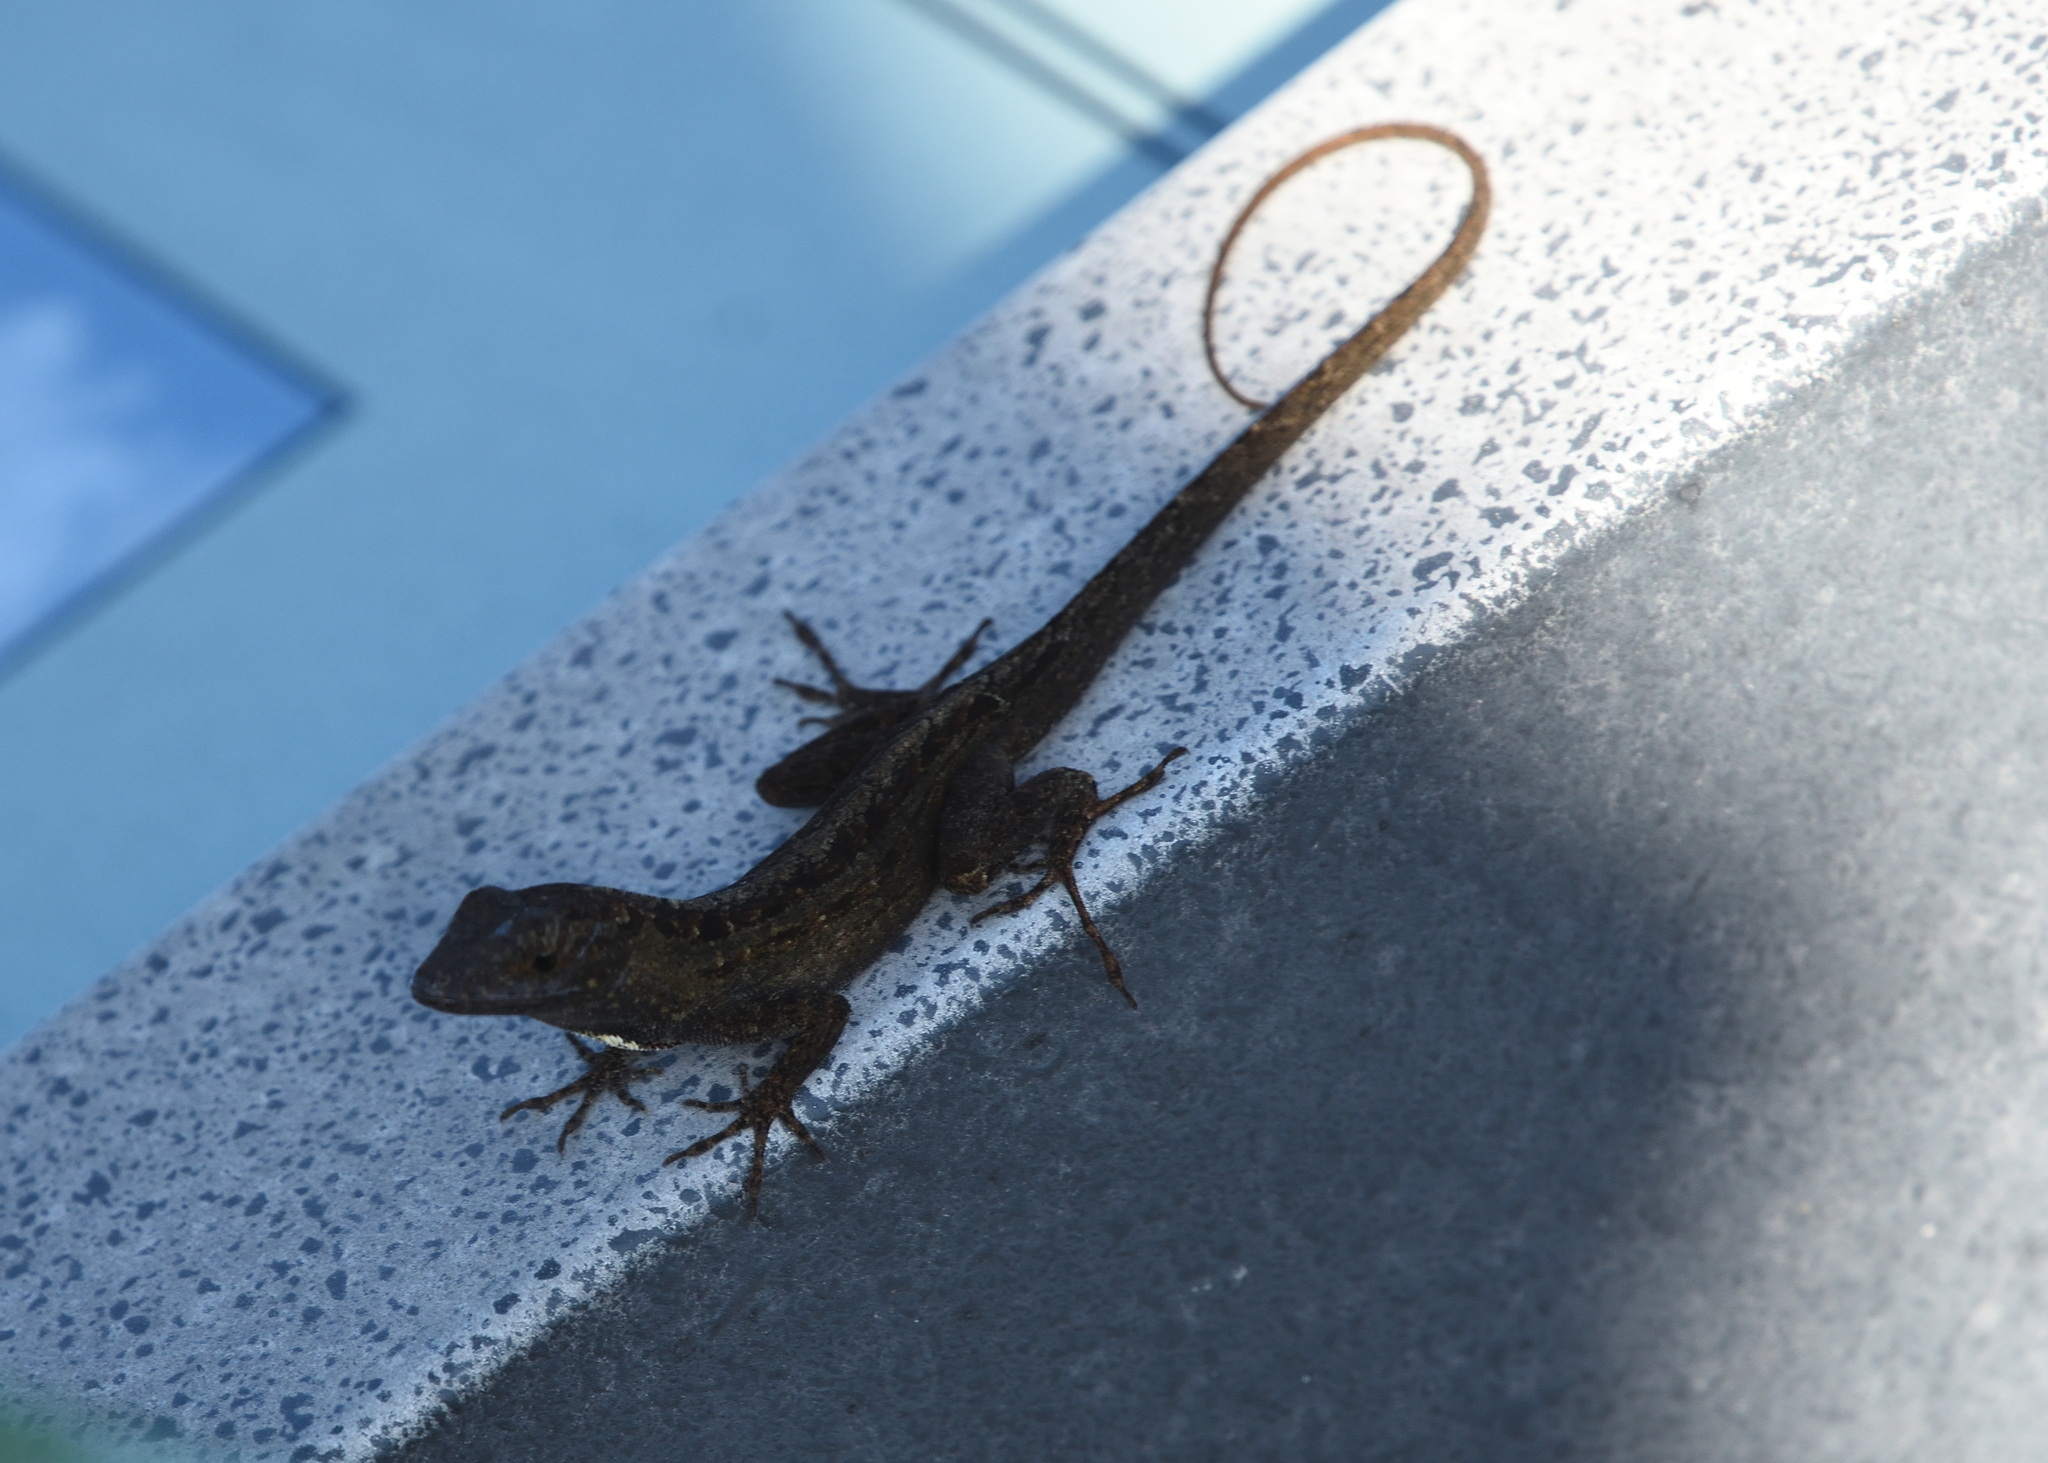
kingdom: Animalia
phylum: Chordata
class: Squamata
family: Dactyloidae
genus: Anolis
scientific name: Anolis sagrei
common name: Brown anole
